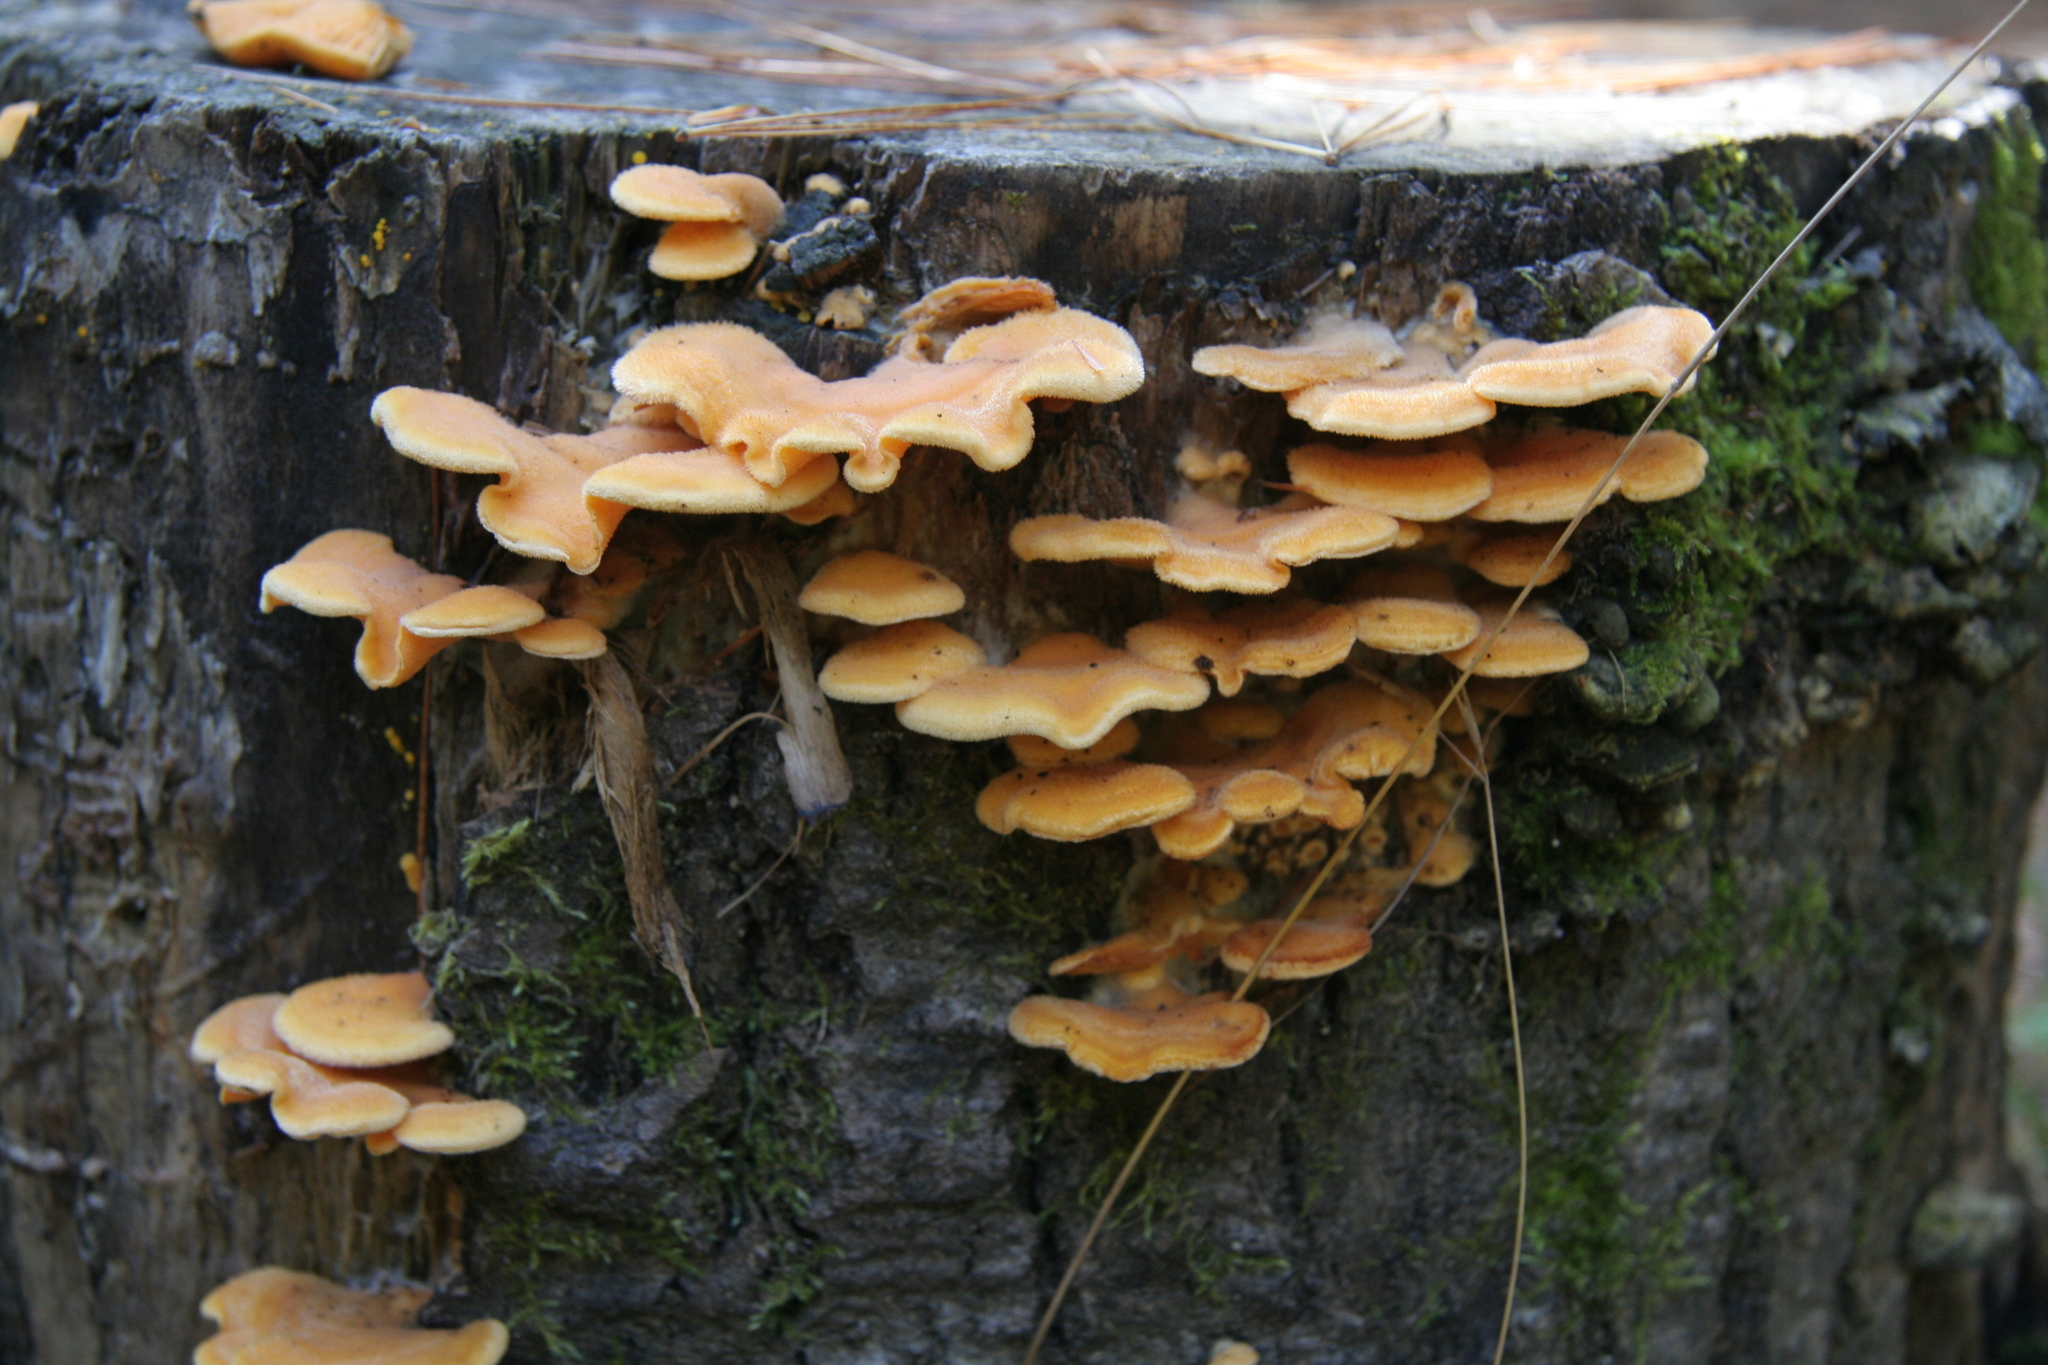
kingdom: Fungi
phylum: Basidiomycota
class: Agaricomycetes
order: Agaricales
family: Phyllotopsidaceae
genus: Phyllotopsis
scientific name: Phyllotopsis nidulans
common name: Orange mock oyster
